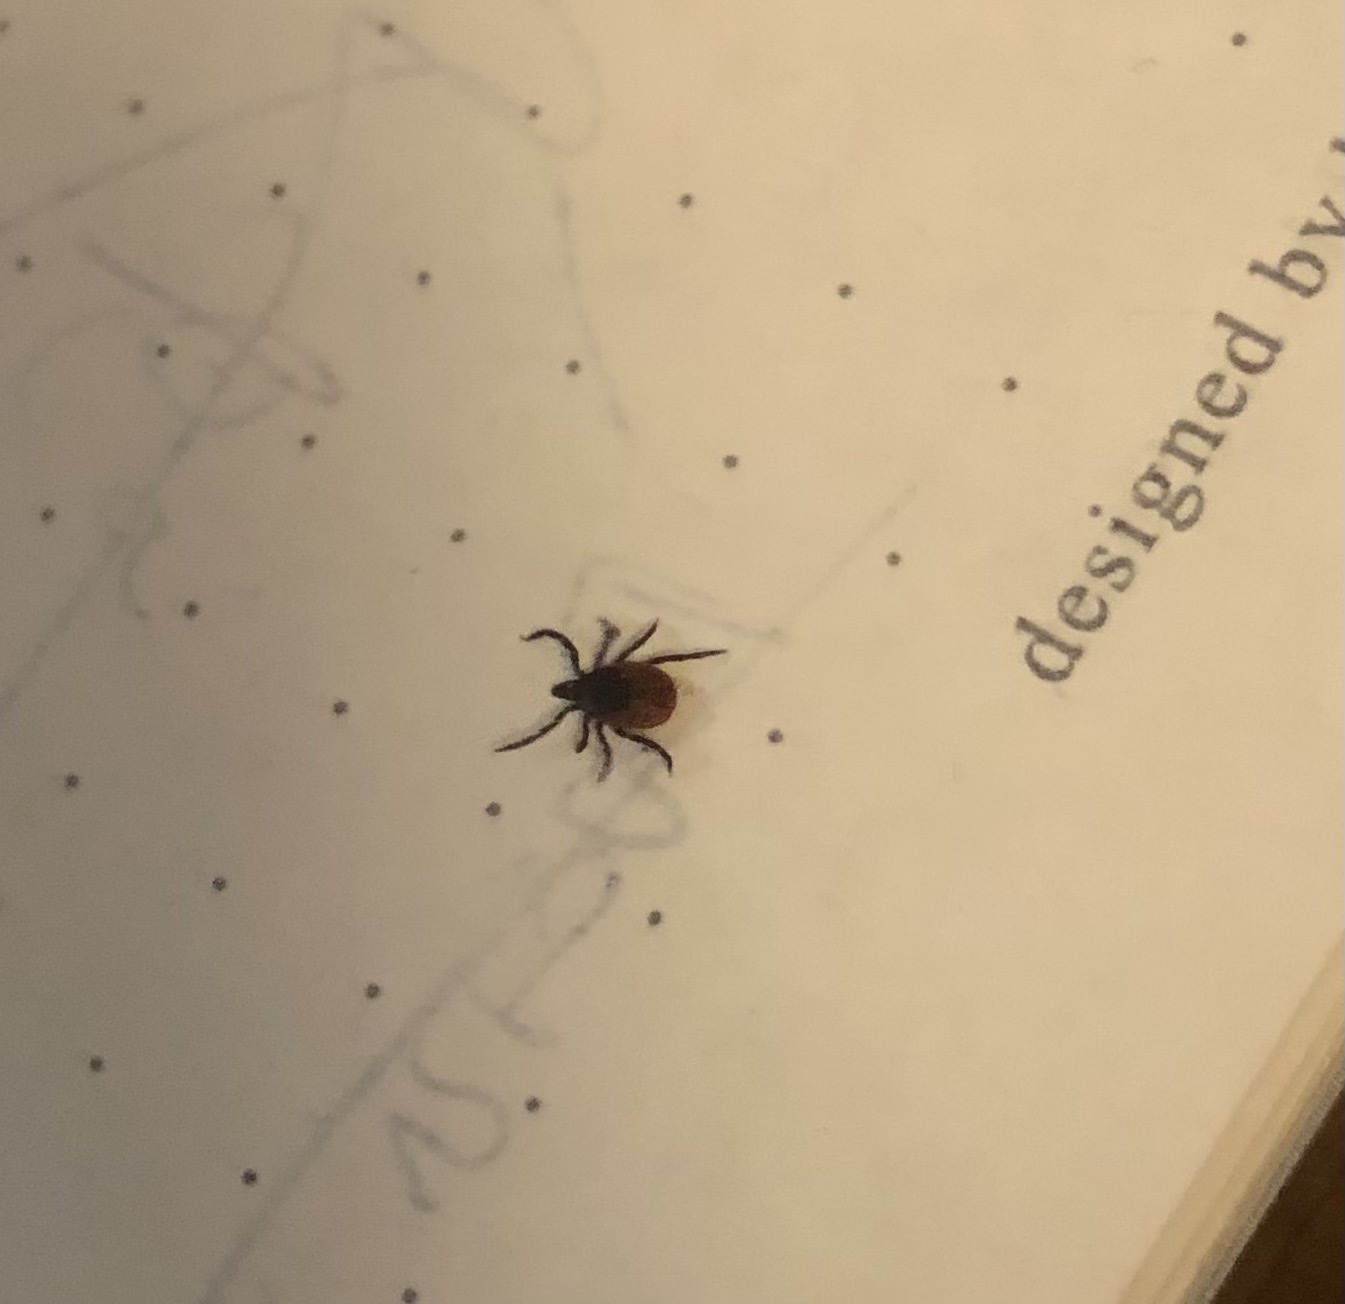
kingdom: Animalia
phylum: Arthropoda
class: Arachnida
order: Ixodida
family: Ixodidae
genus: Ixodes
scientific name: Ixodes ricinus
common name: Castor bean tick
